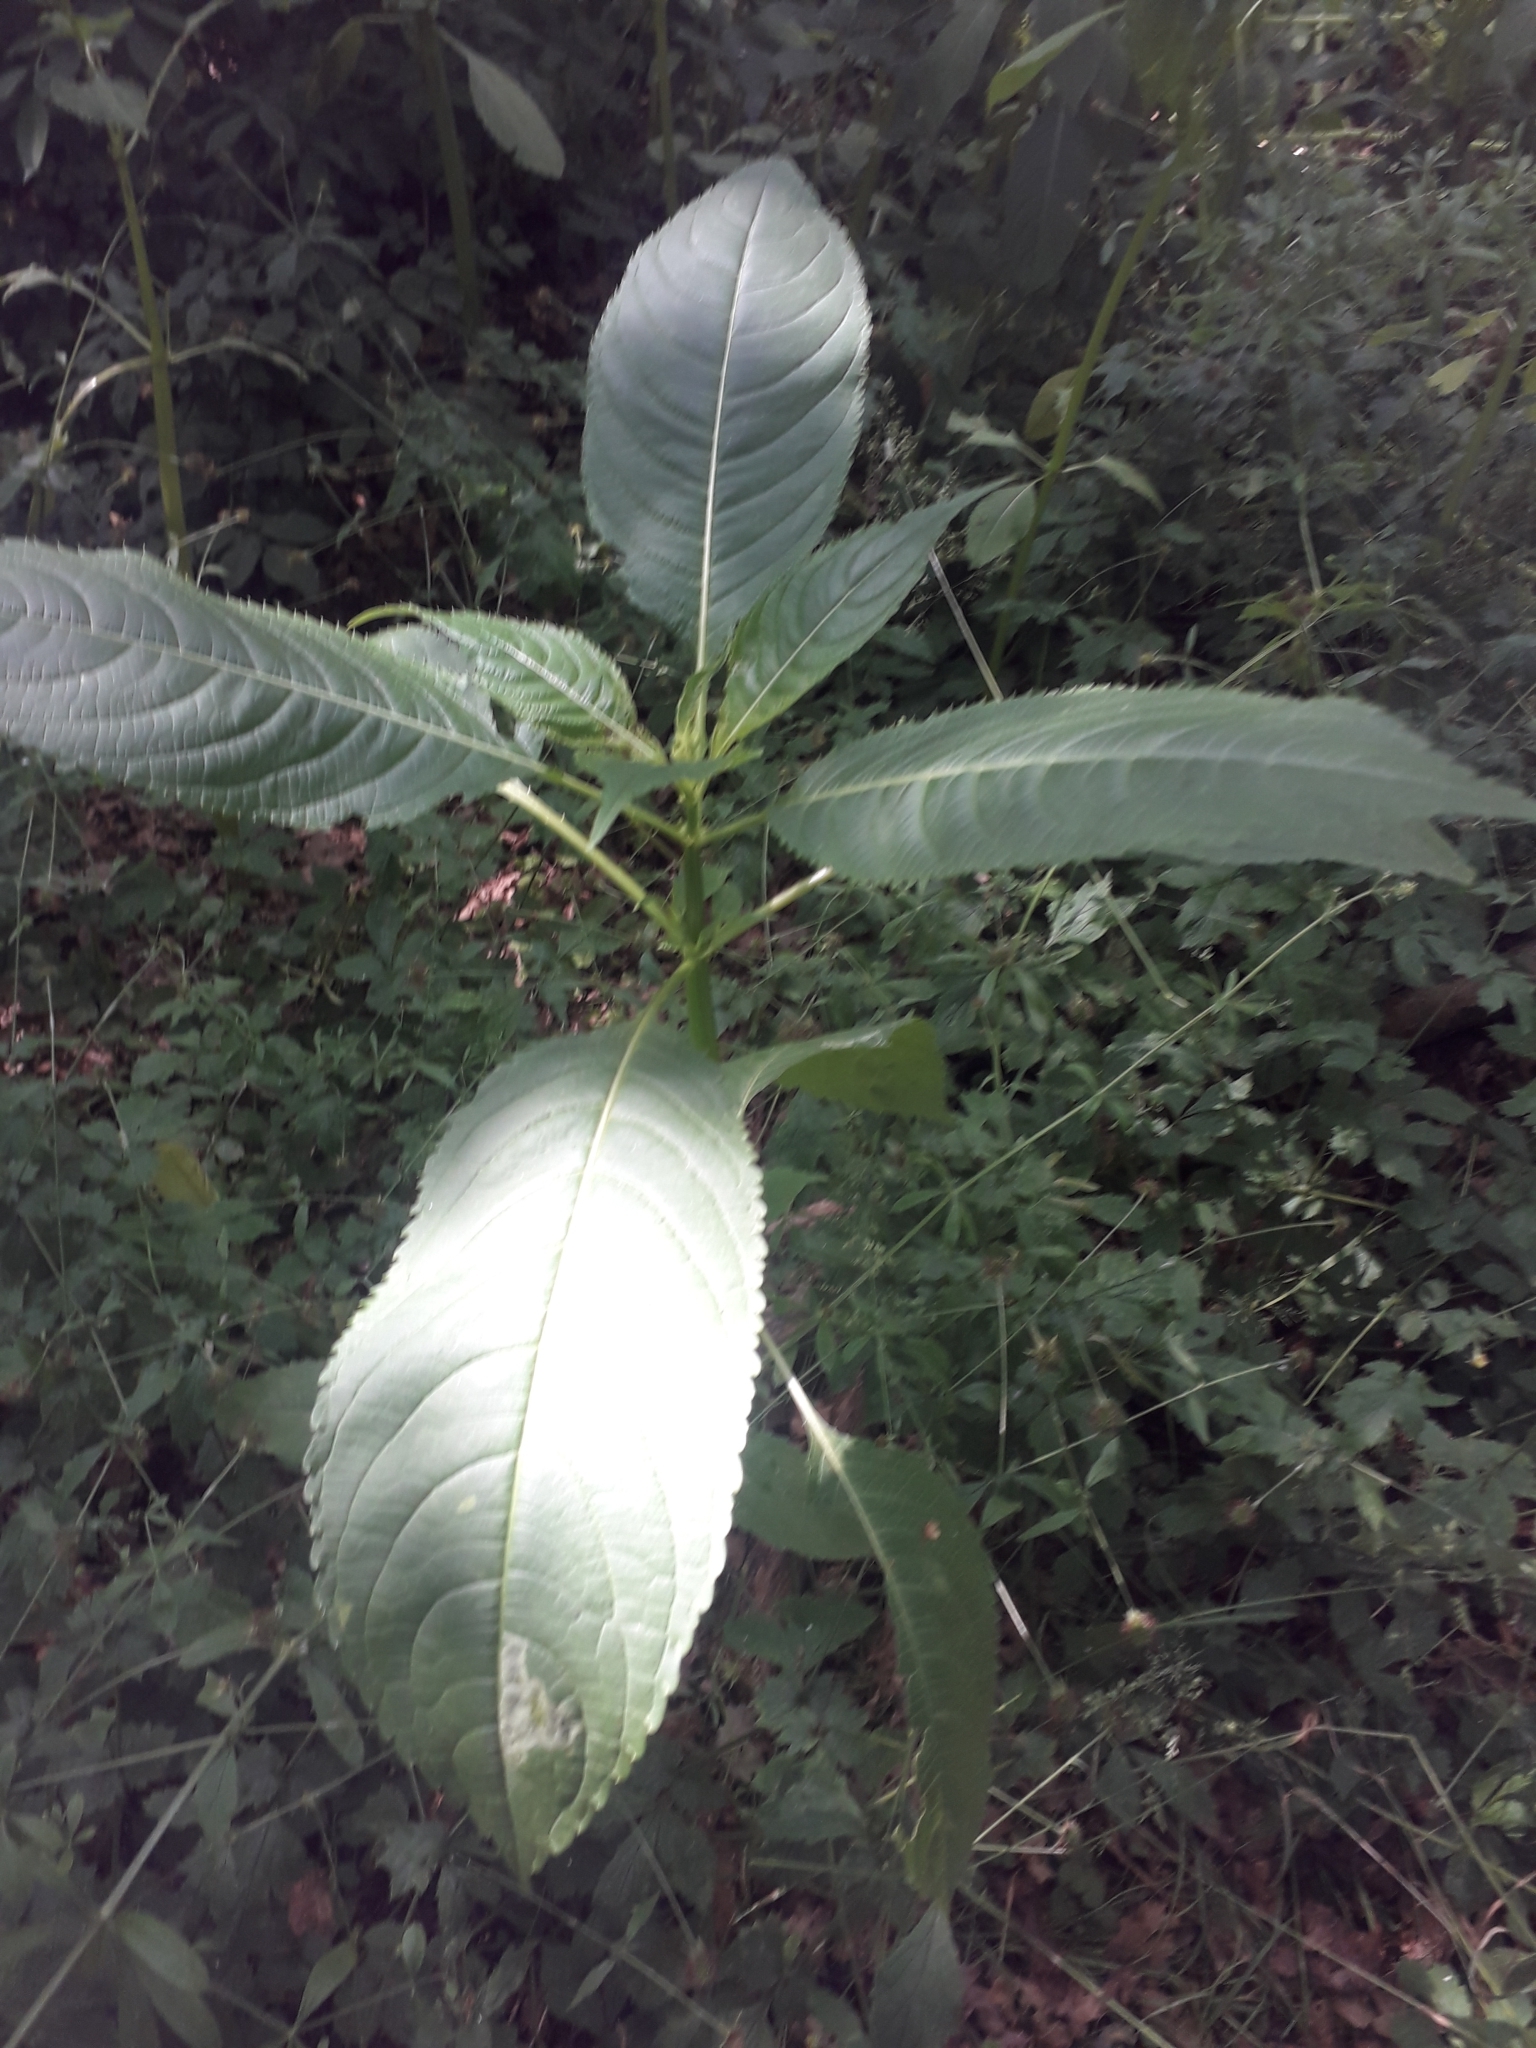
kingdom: Plantae
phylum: Tracheophyta
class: Magnoliopsida
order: Ericales
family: Balsaminaceae
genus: Impatiens
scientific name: Impatiens glandulifera
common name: Himalayan balsam
